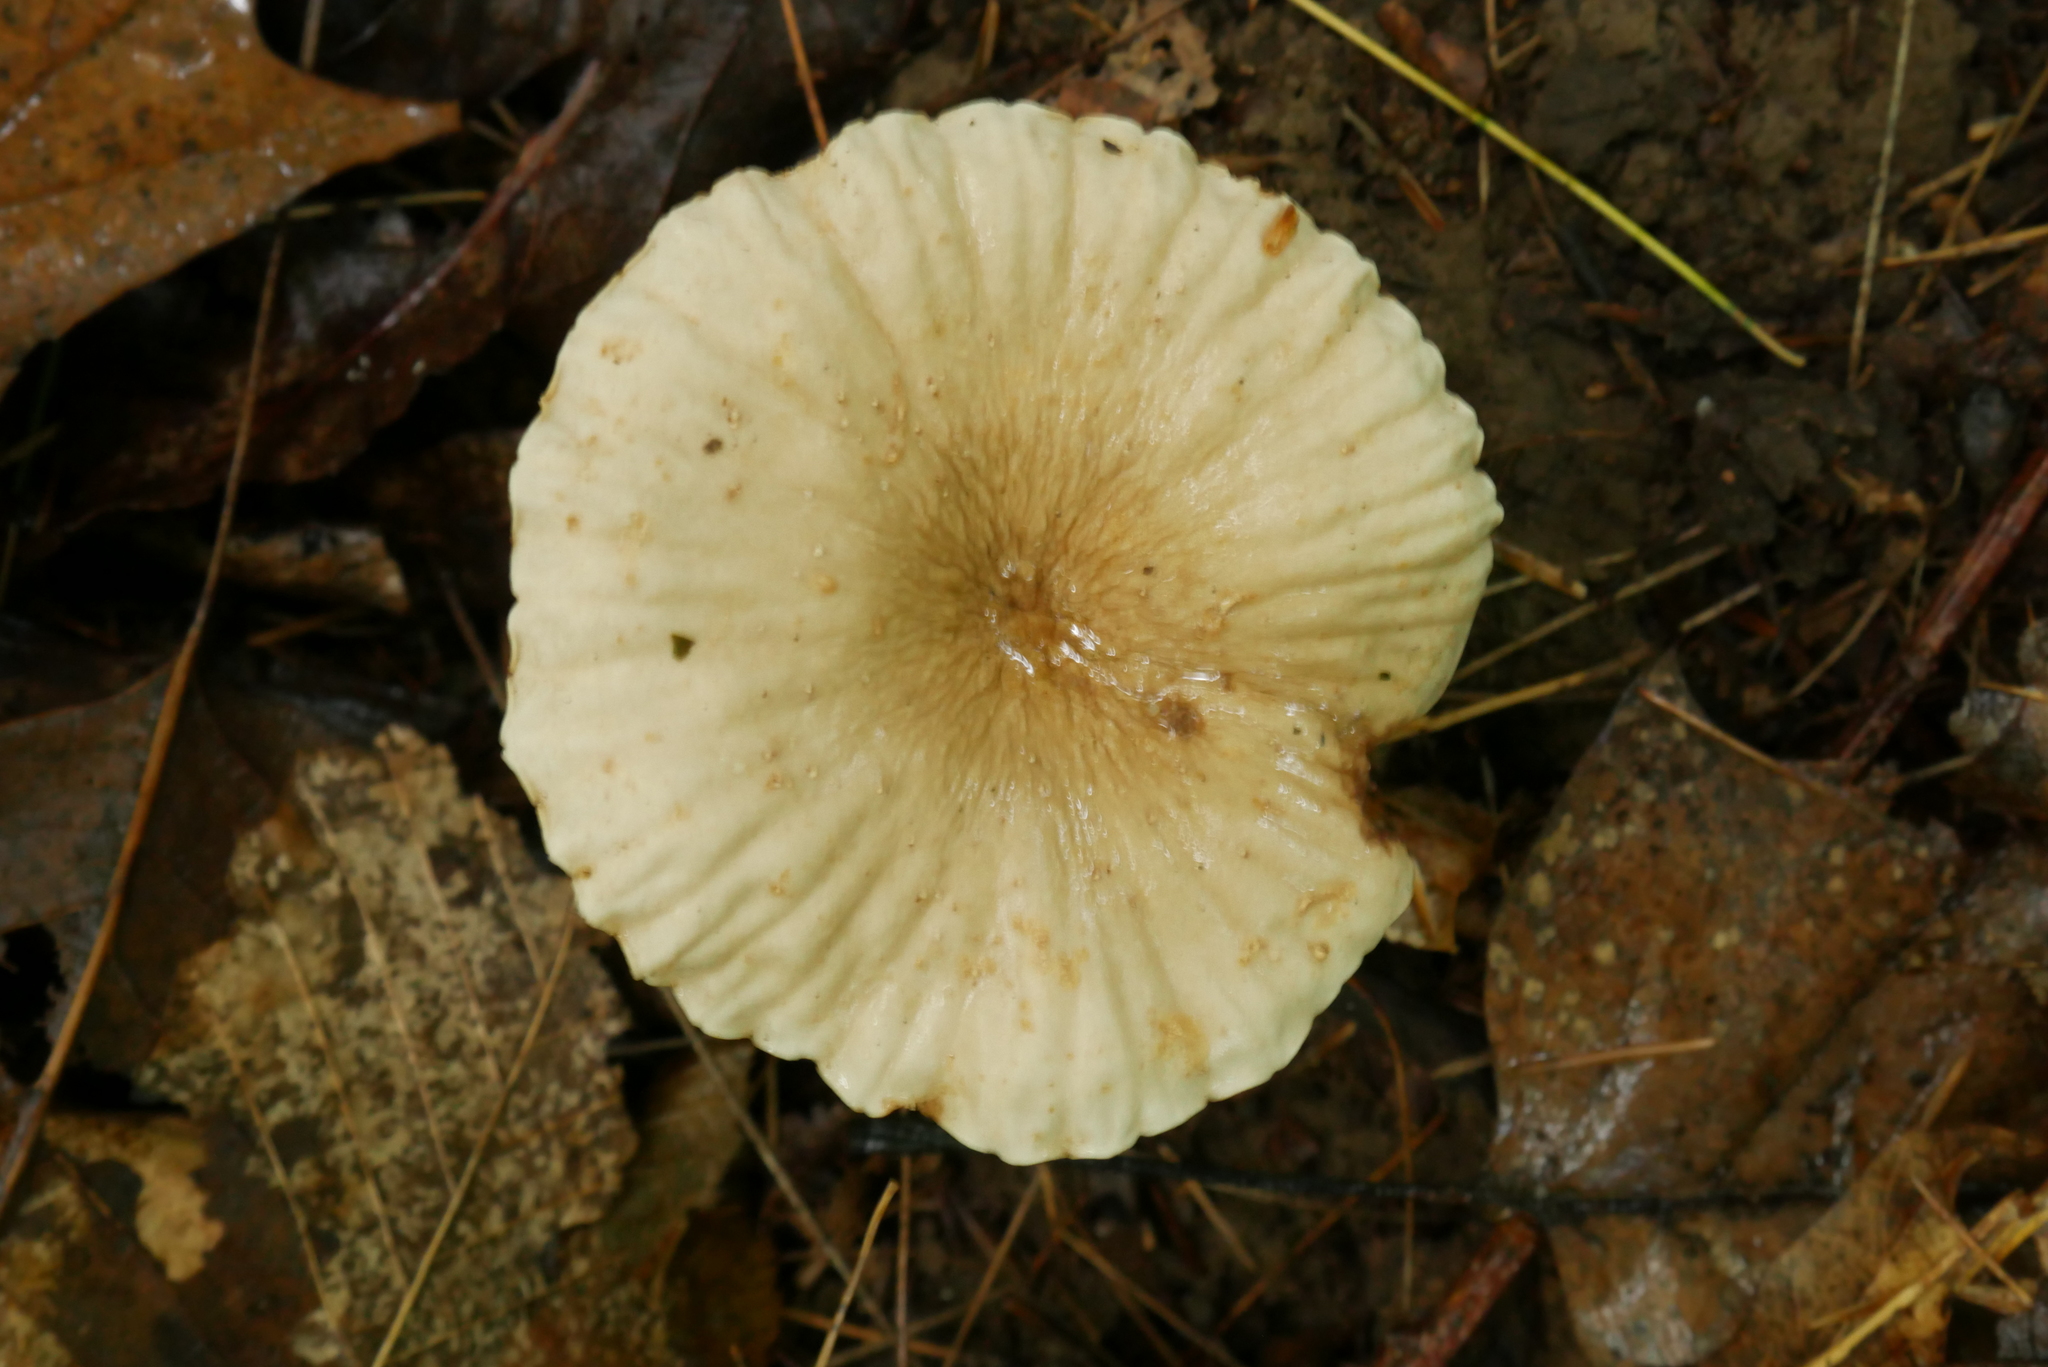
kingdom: Fungi
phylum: Basidiomycota
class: Agaricomycetes
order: Russulales
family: Russulaceae
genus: Lactarius
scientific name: Lactarius subplinthogalus
